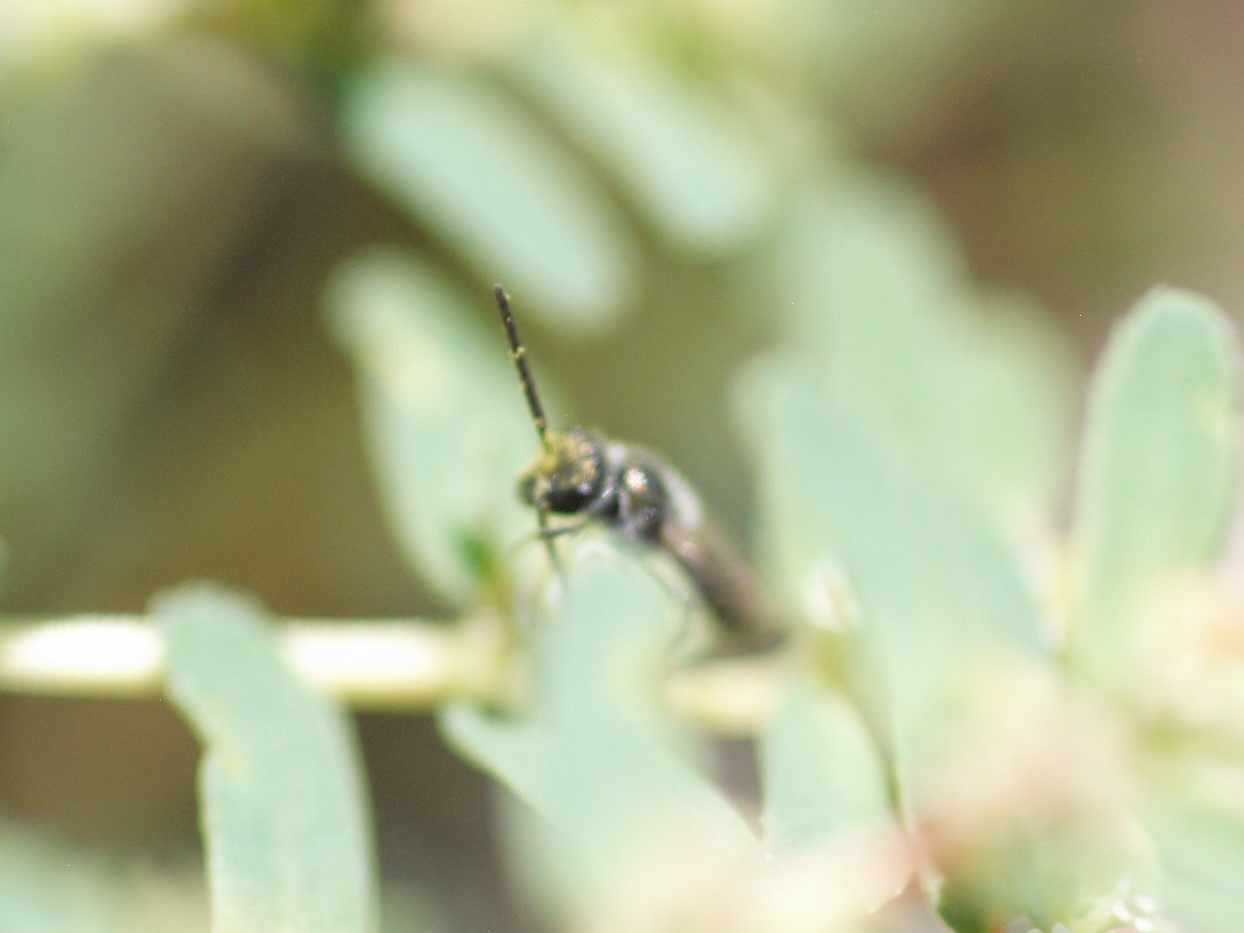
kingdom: Animalia
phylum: Arthropoda
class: Insecta
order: Hymenoptera
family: Halictidae
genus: Dialictus
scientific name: Dialictus
